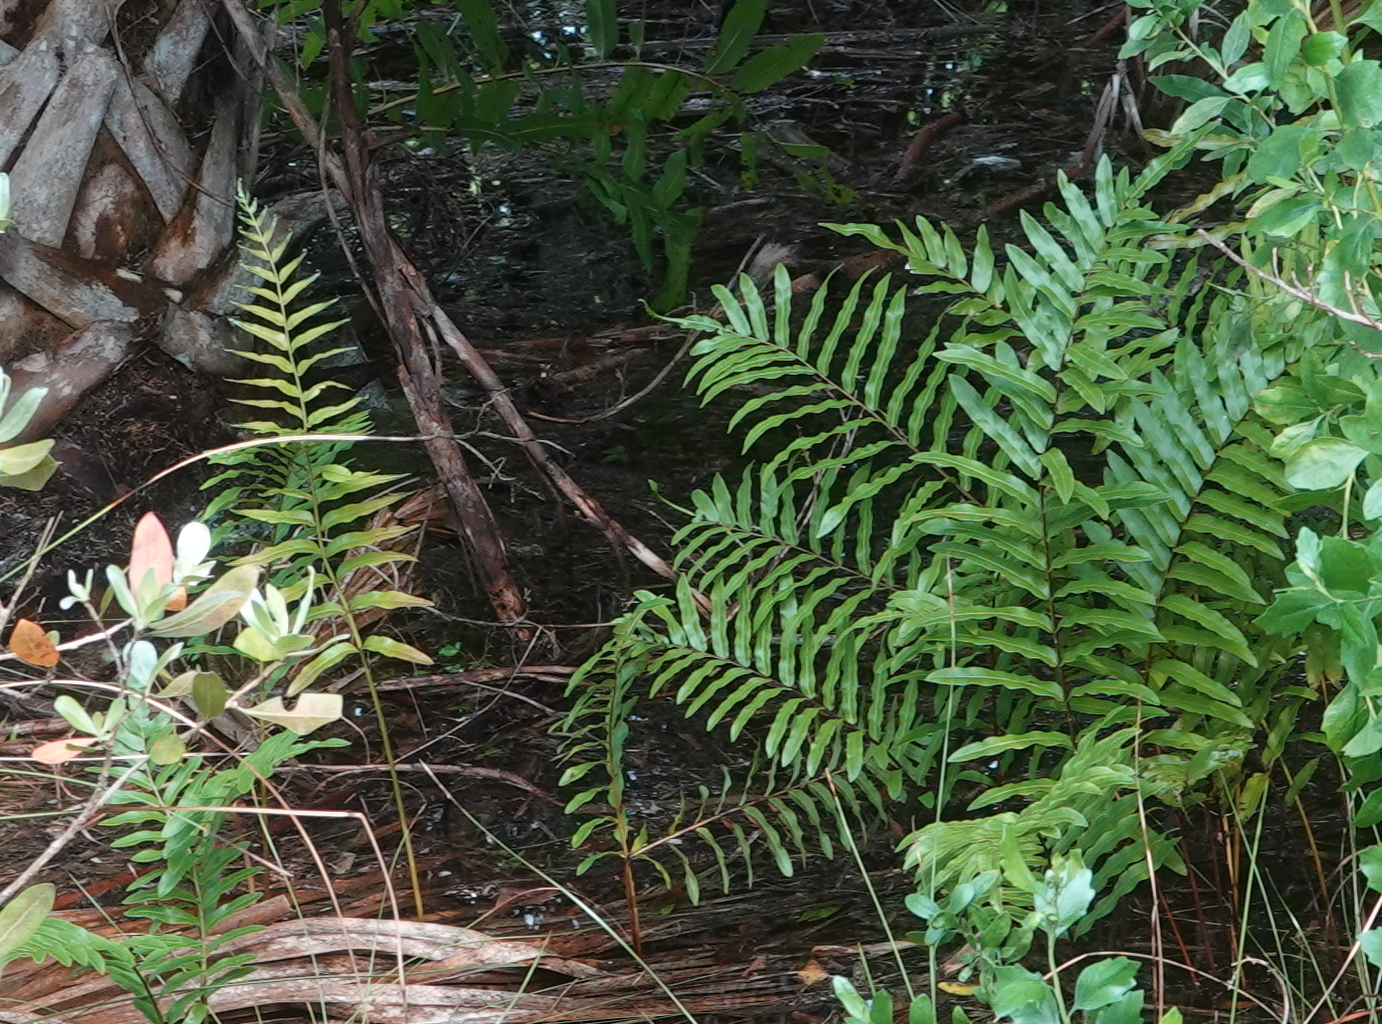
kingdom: Plantae
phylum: Tracheophyta
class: Polypodiopsida
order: Polypodiales
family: Blechnaceae
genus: Telmatoblechnum
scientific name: Telmatoblechnum serrulatum
